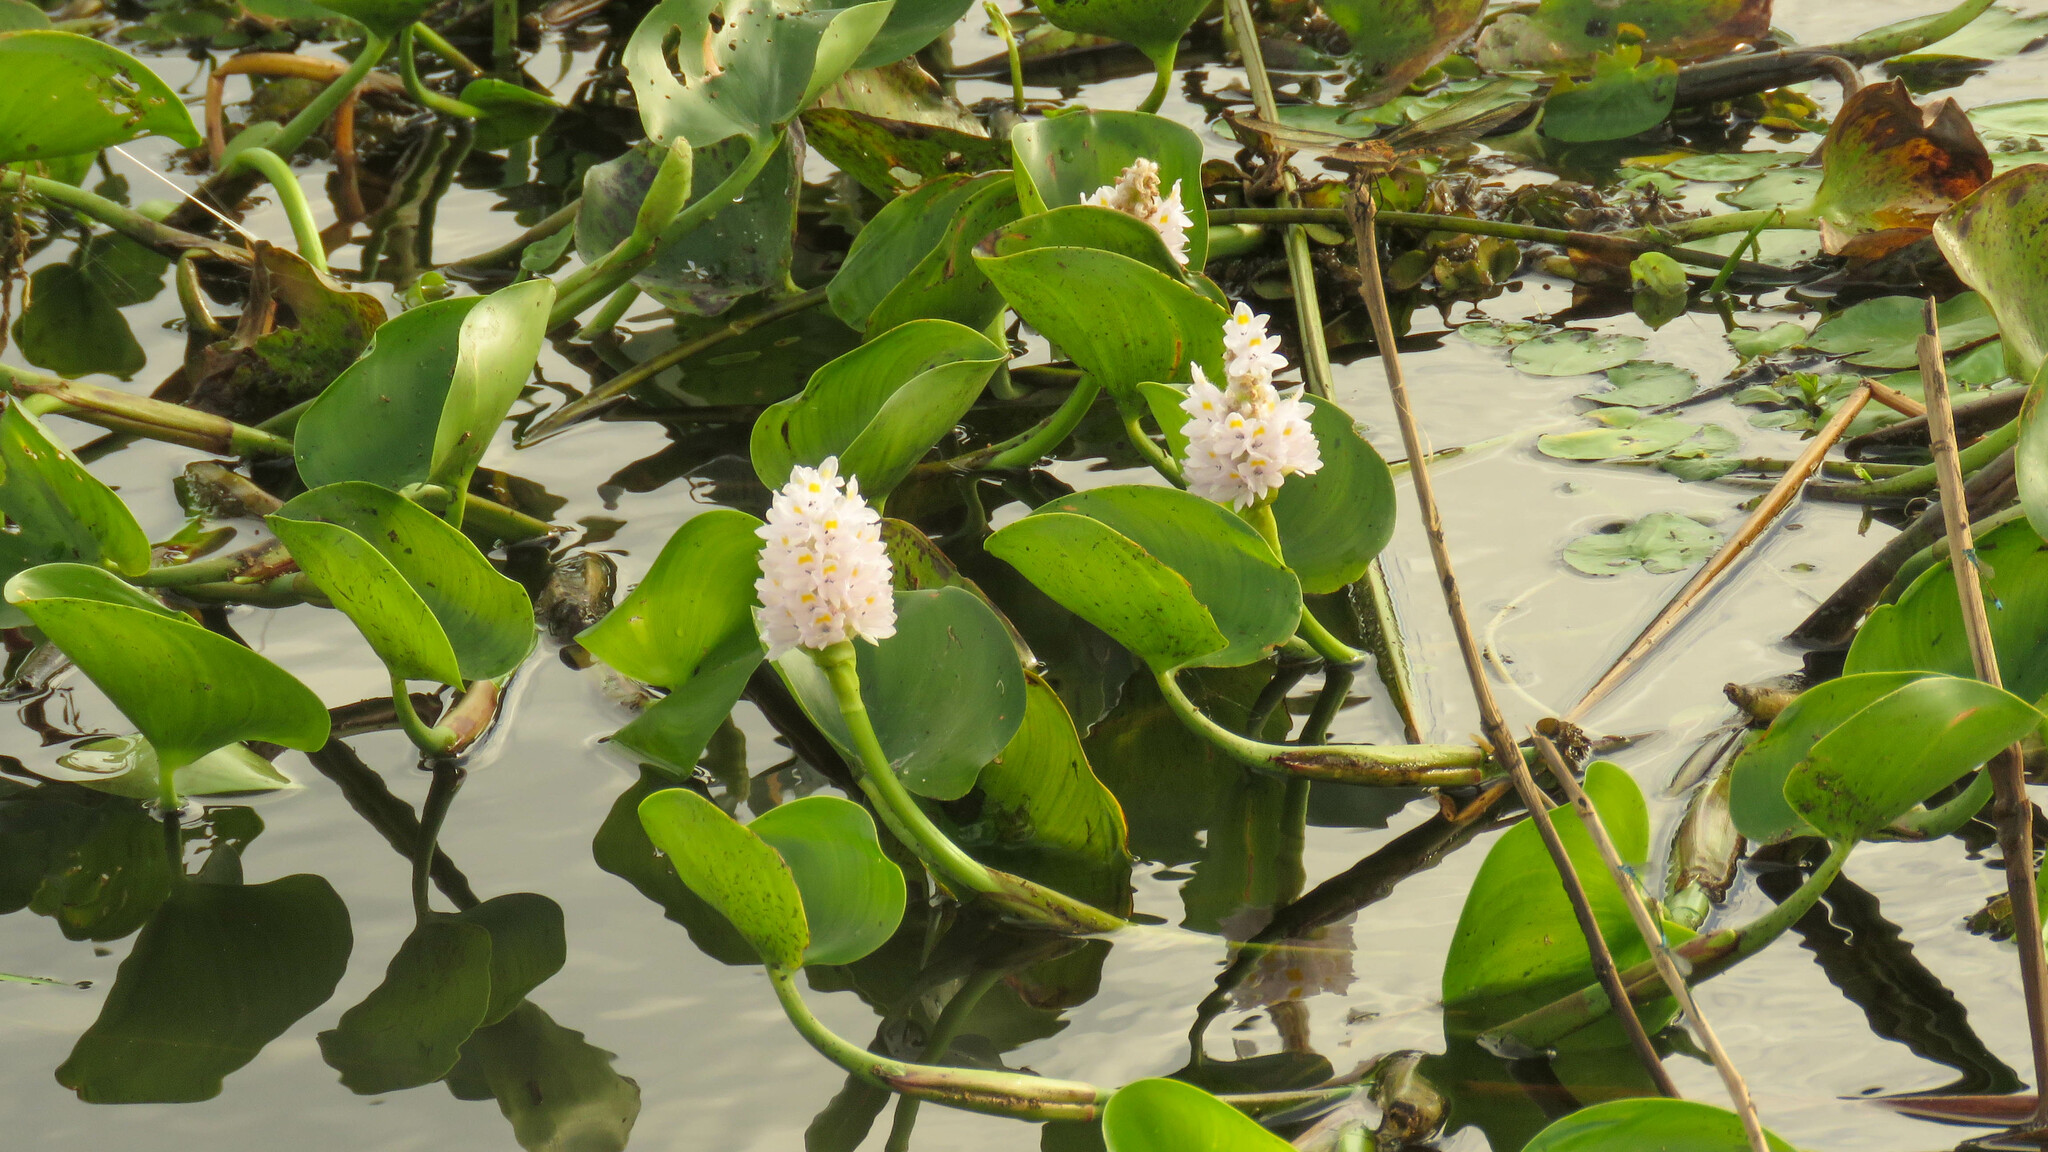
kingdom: Plantae
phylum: Tracheophyta
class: Liliopsida
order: Commelinales
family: Pontederiaceae
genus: Pontederia
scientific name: Pontederia rotundifolia
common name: Tropical pickerel-weed
